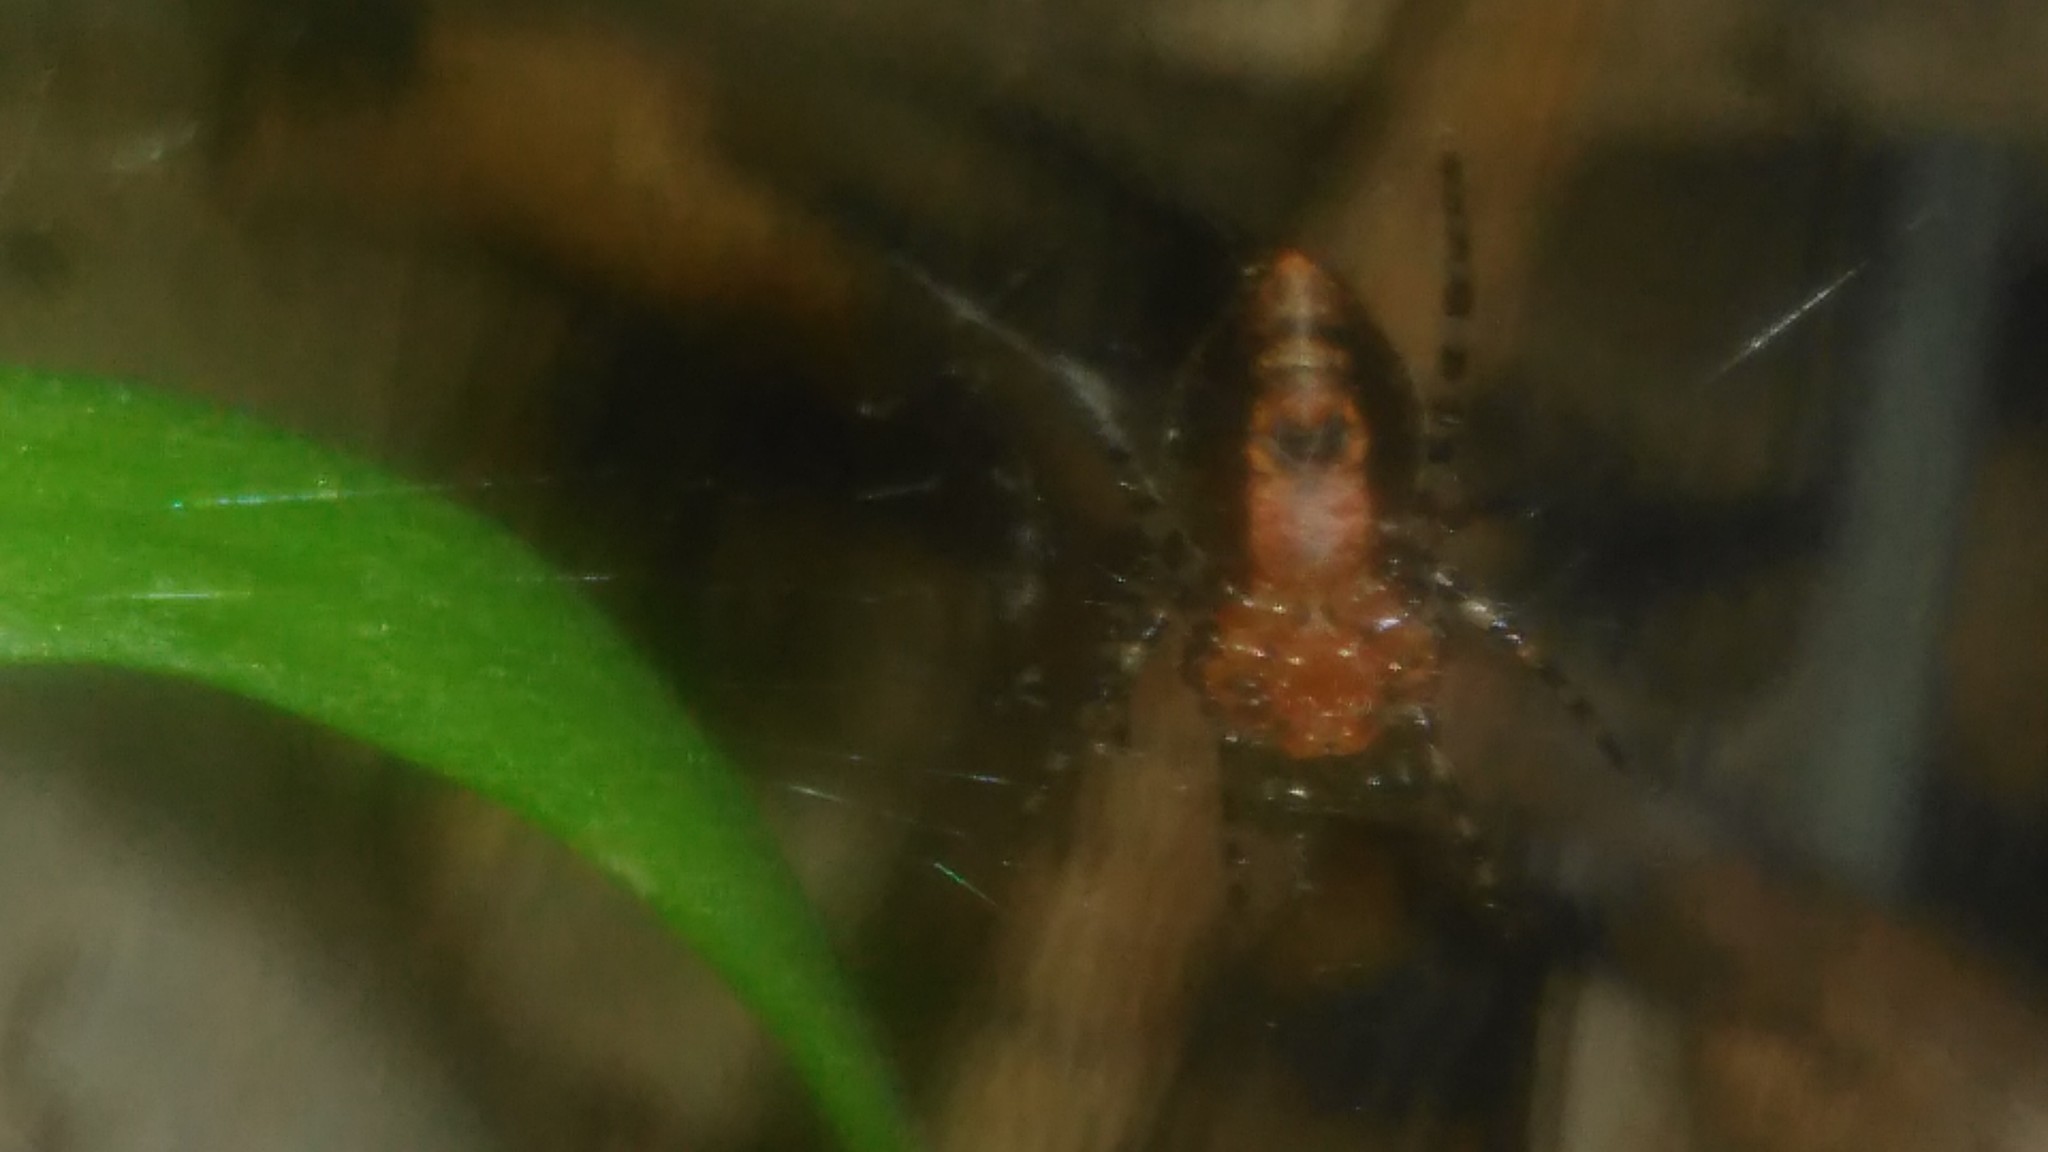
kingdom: Animalia
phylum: Arthropoda
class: Arachnida
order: Araneae
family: Araneidae
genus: Alpaida
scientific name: Alpaida gallardoi
